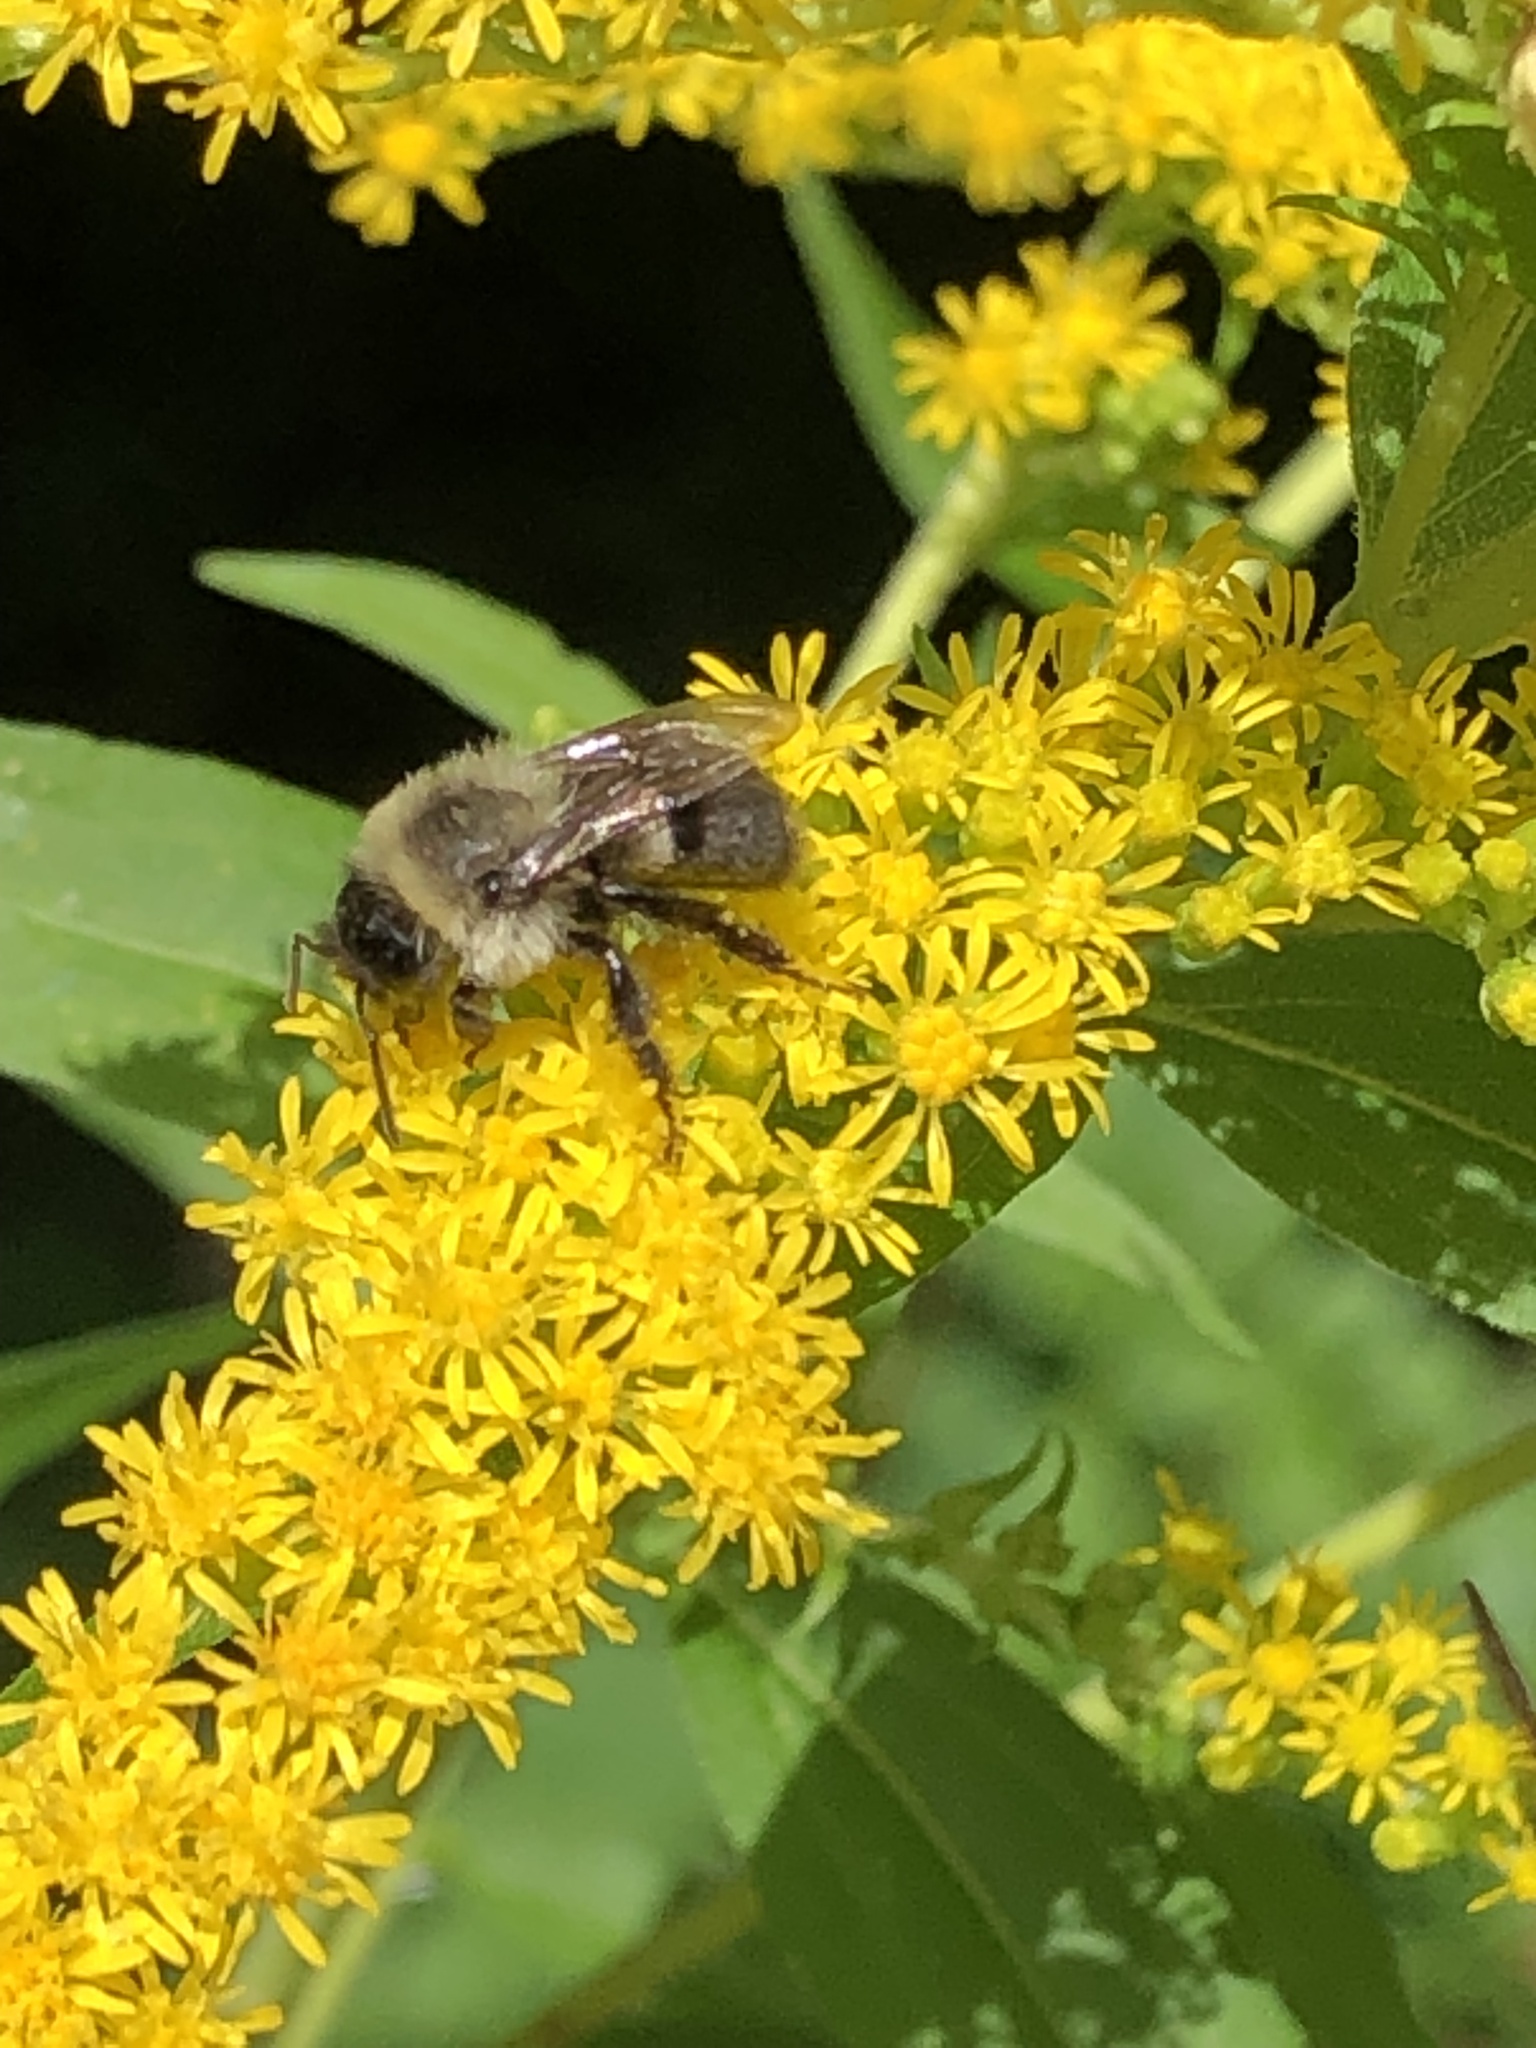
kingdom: Animalia
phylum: Arthropoda
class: Insecta
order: Hymenoptera
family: Apidae
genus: Bombus
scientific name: Bombus impatiens
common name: Common eastern bumble bee
